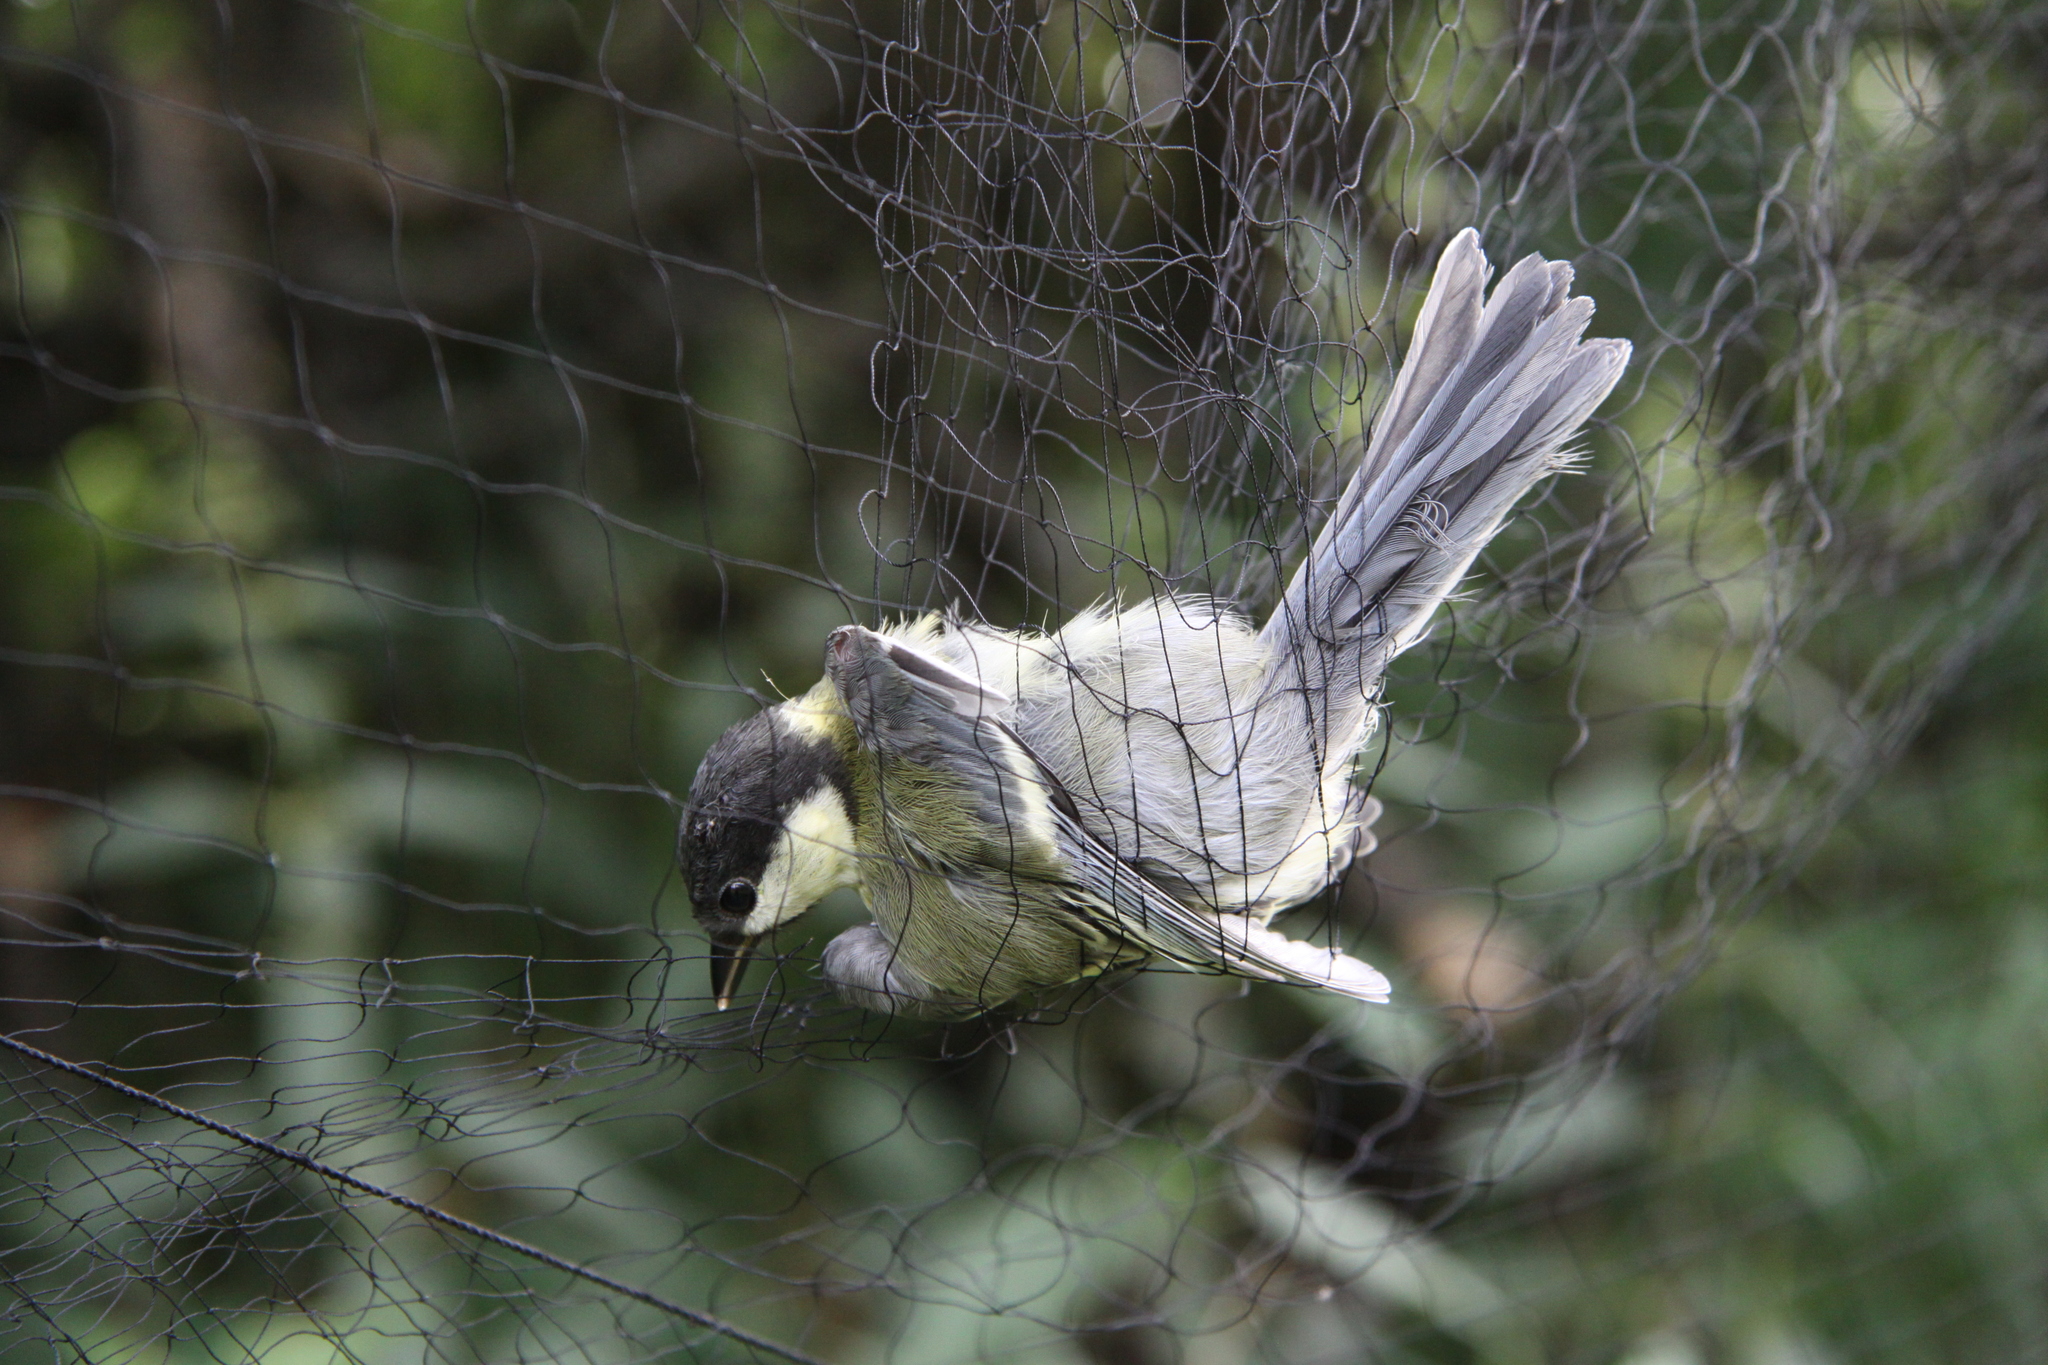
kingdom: Animalia
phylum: Chordata
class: Aves
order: Passeriformes
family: Paridae
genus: Parus
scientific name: Parus major
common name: Great tit
